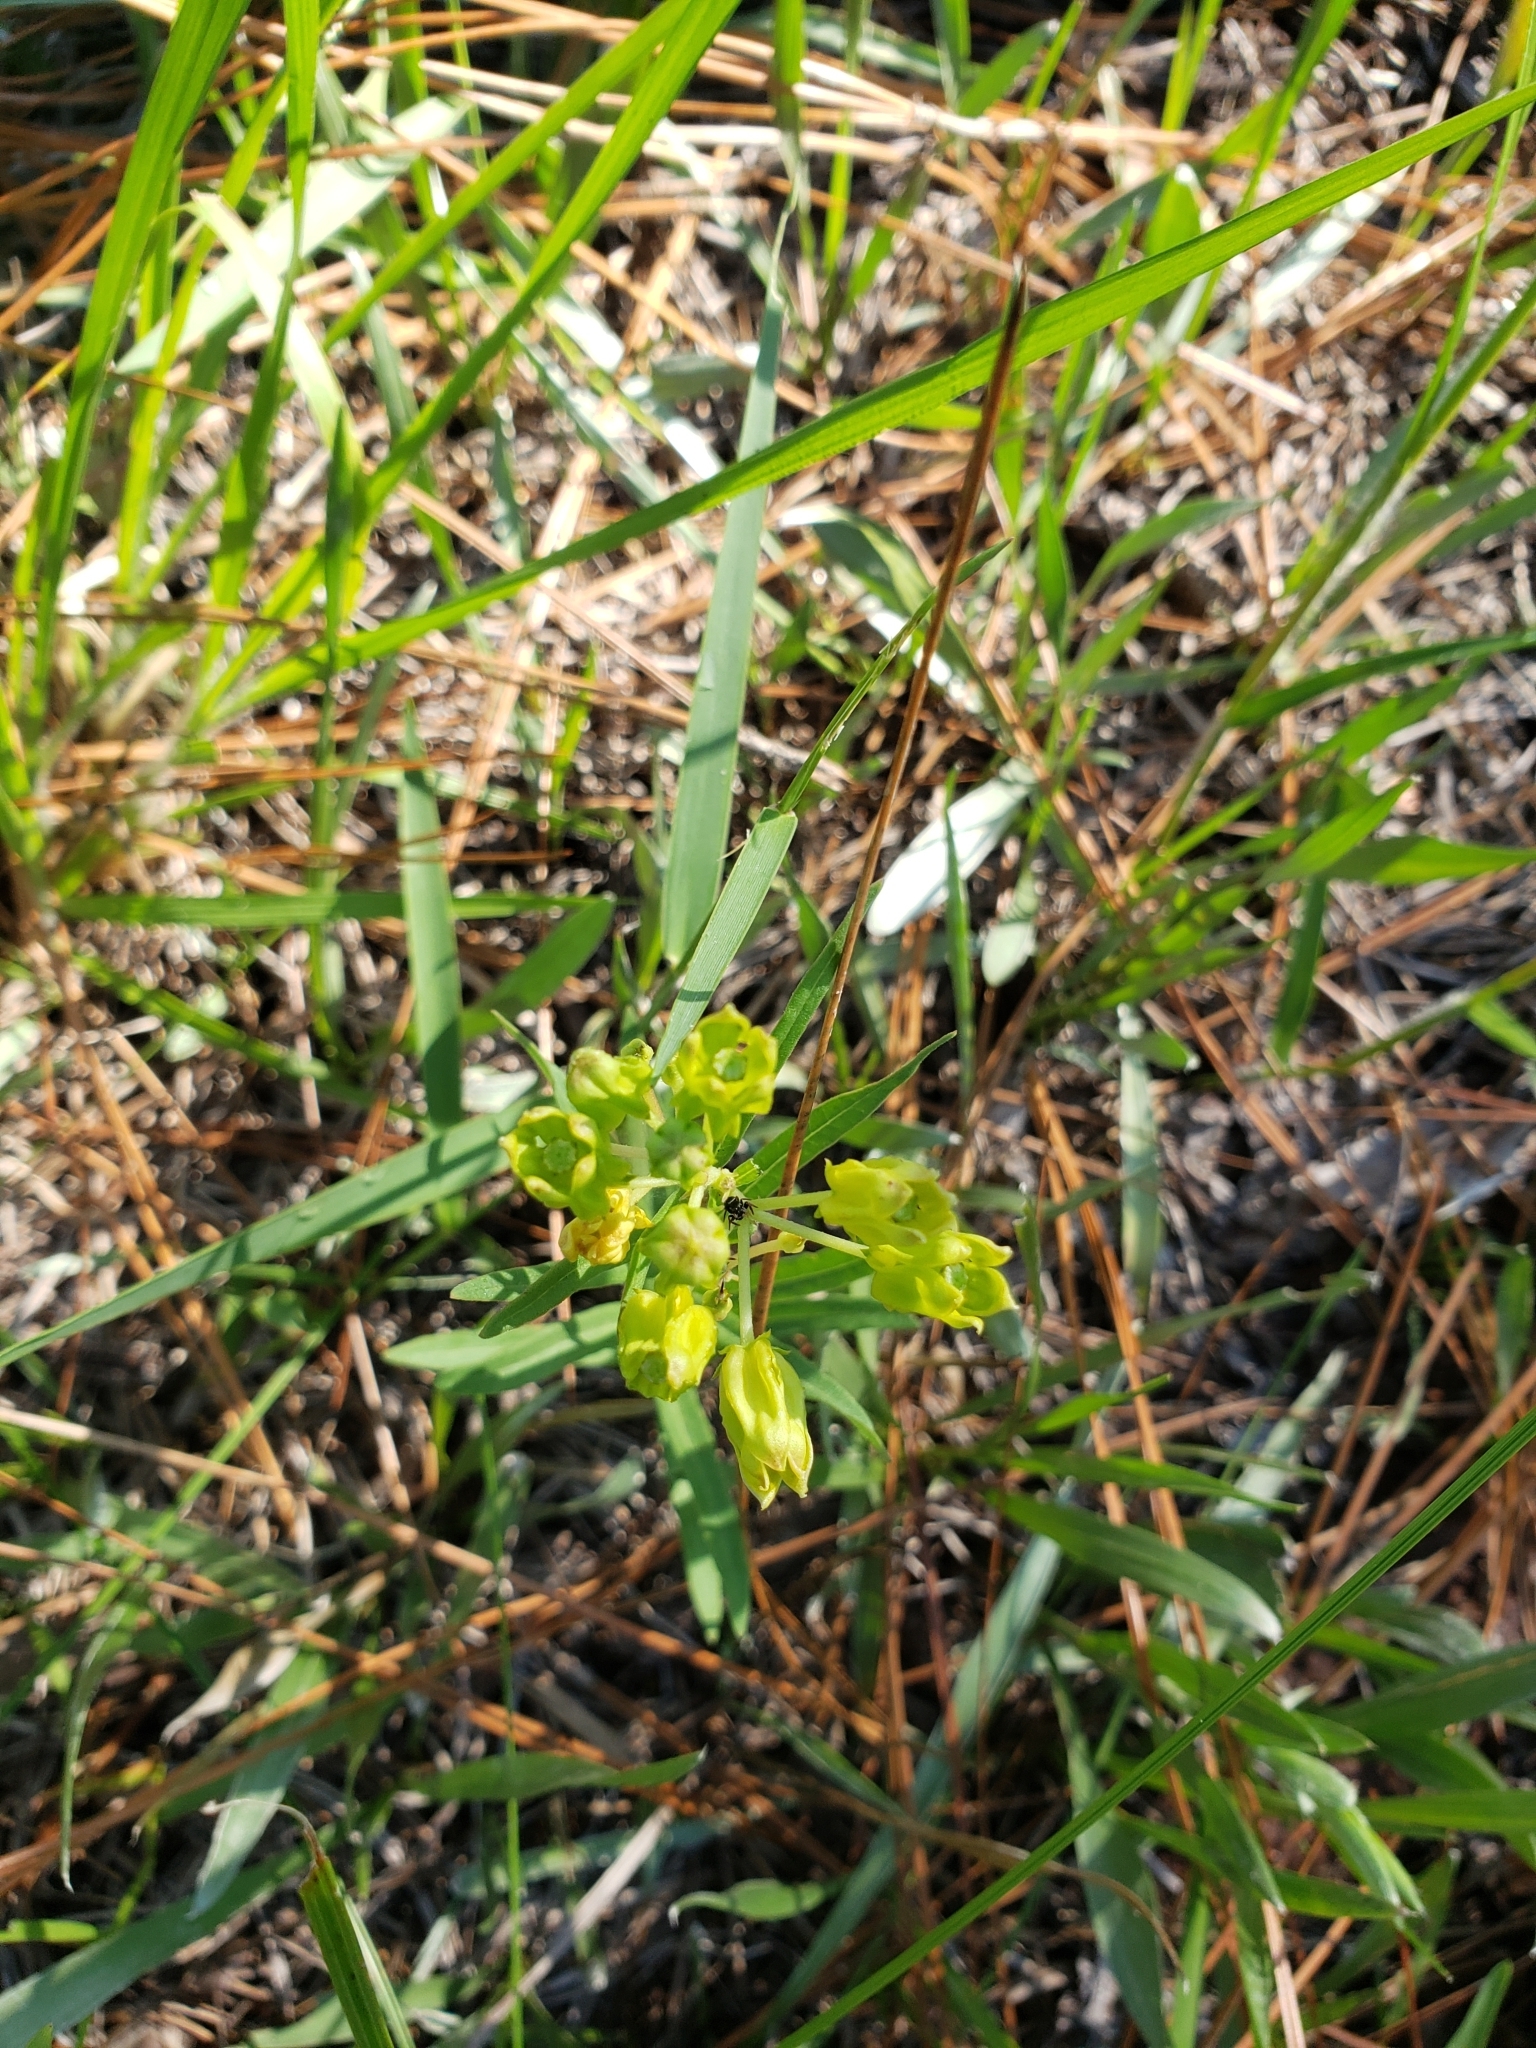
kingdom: Plantae
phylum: Tracheophyta
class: Magnoliopsida
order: Gentianales
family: Apocynaceae
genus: Asclepias
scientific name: Asclepias pedicellata
